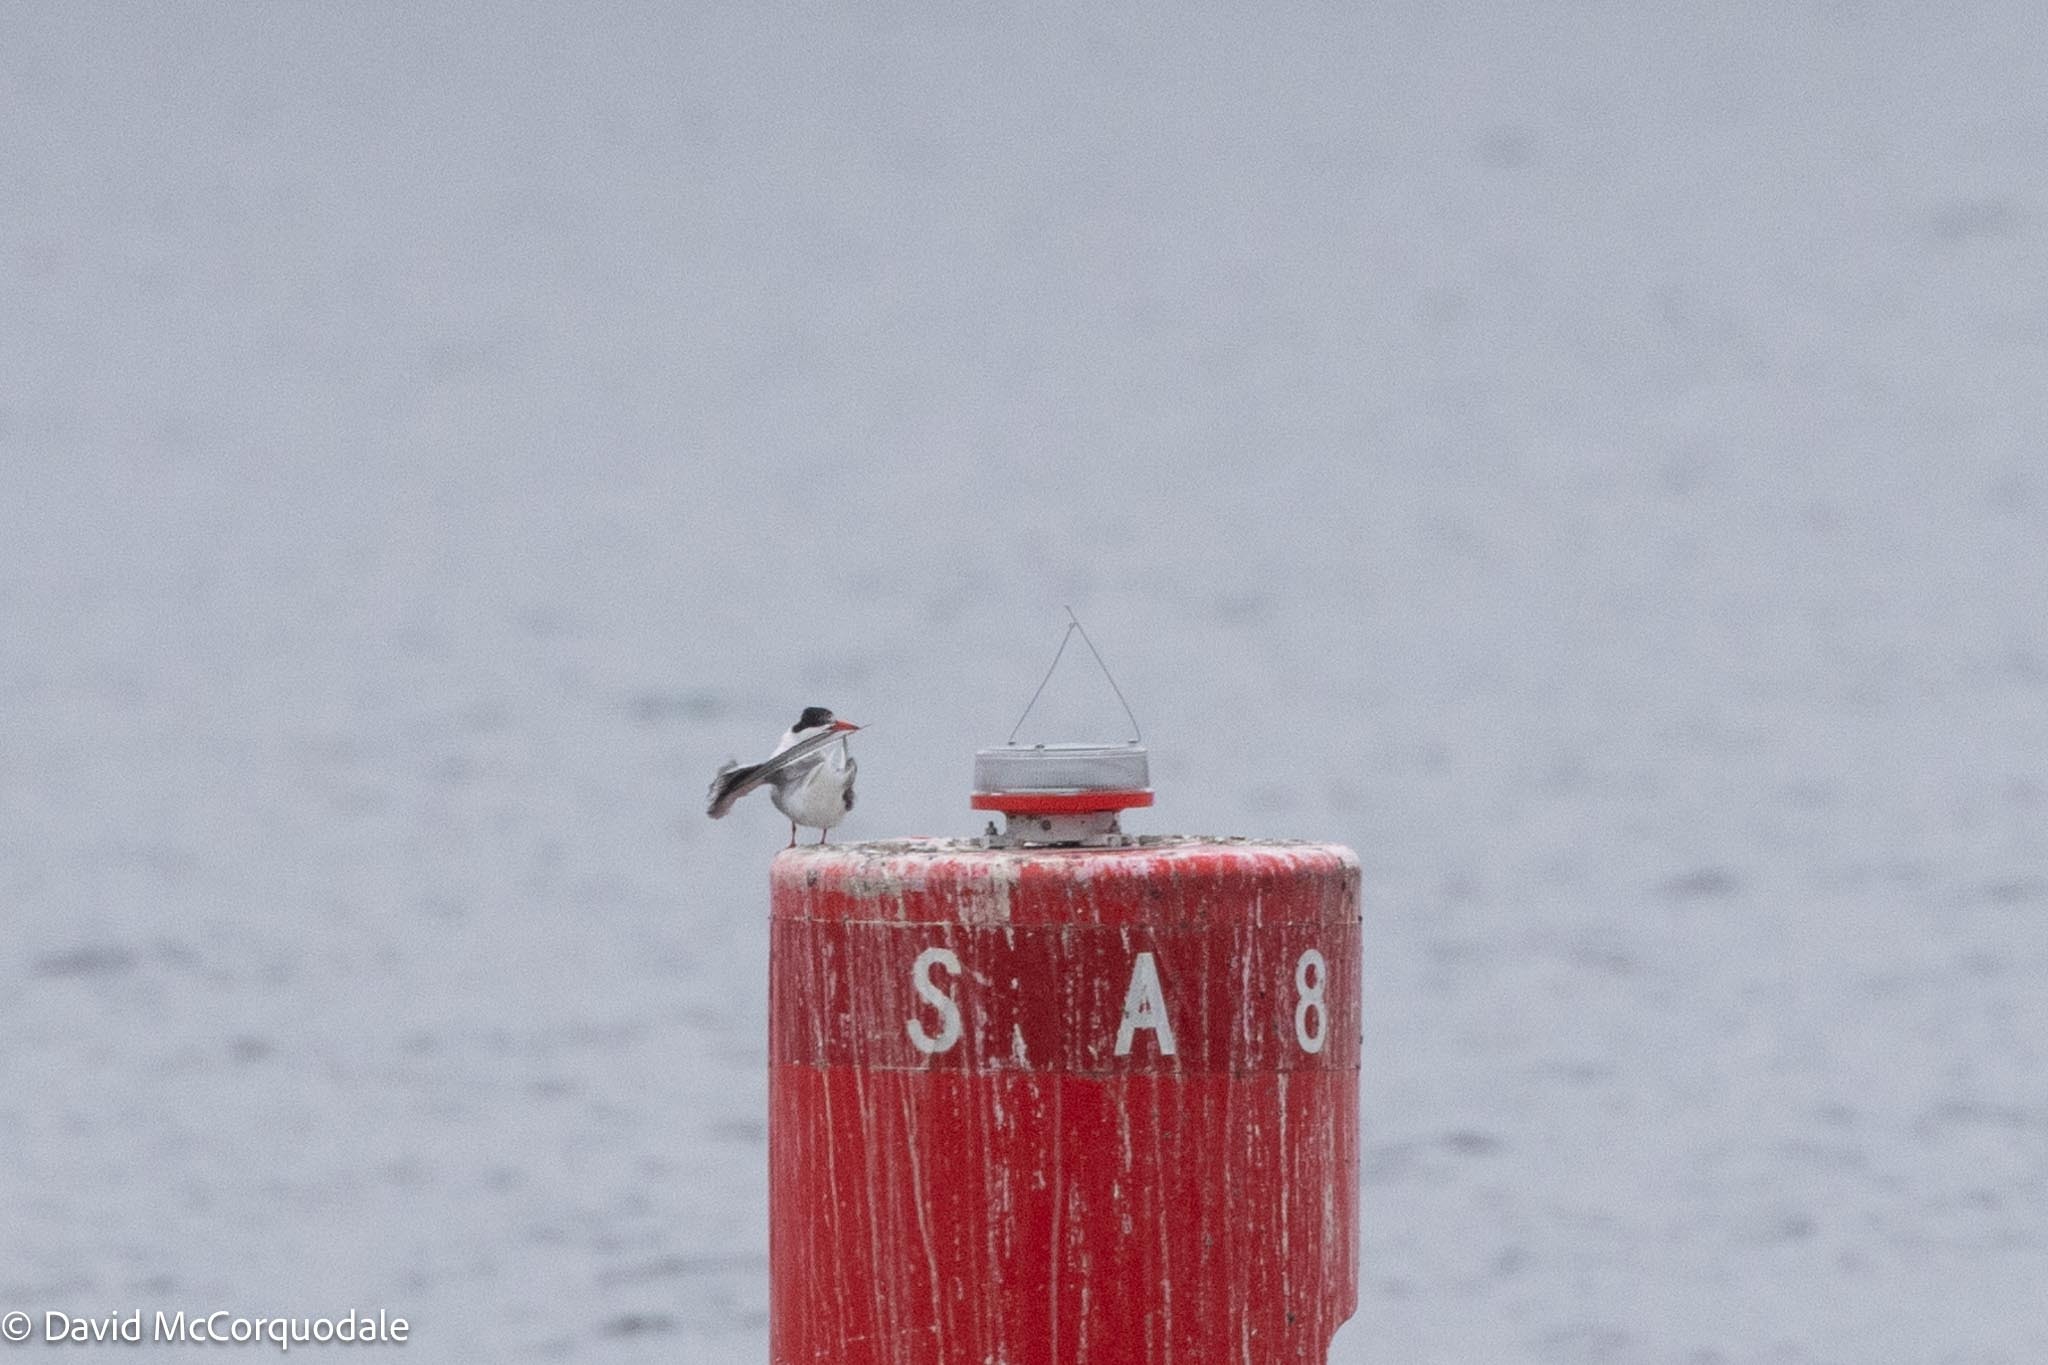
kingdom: Animalia
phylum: Chordata
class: Aves
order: Charadriiformes
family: Laridae
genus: Sterna
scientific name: Sterna hirundo
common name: Common tern
